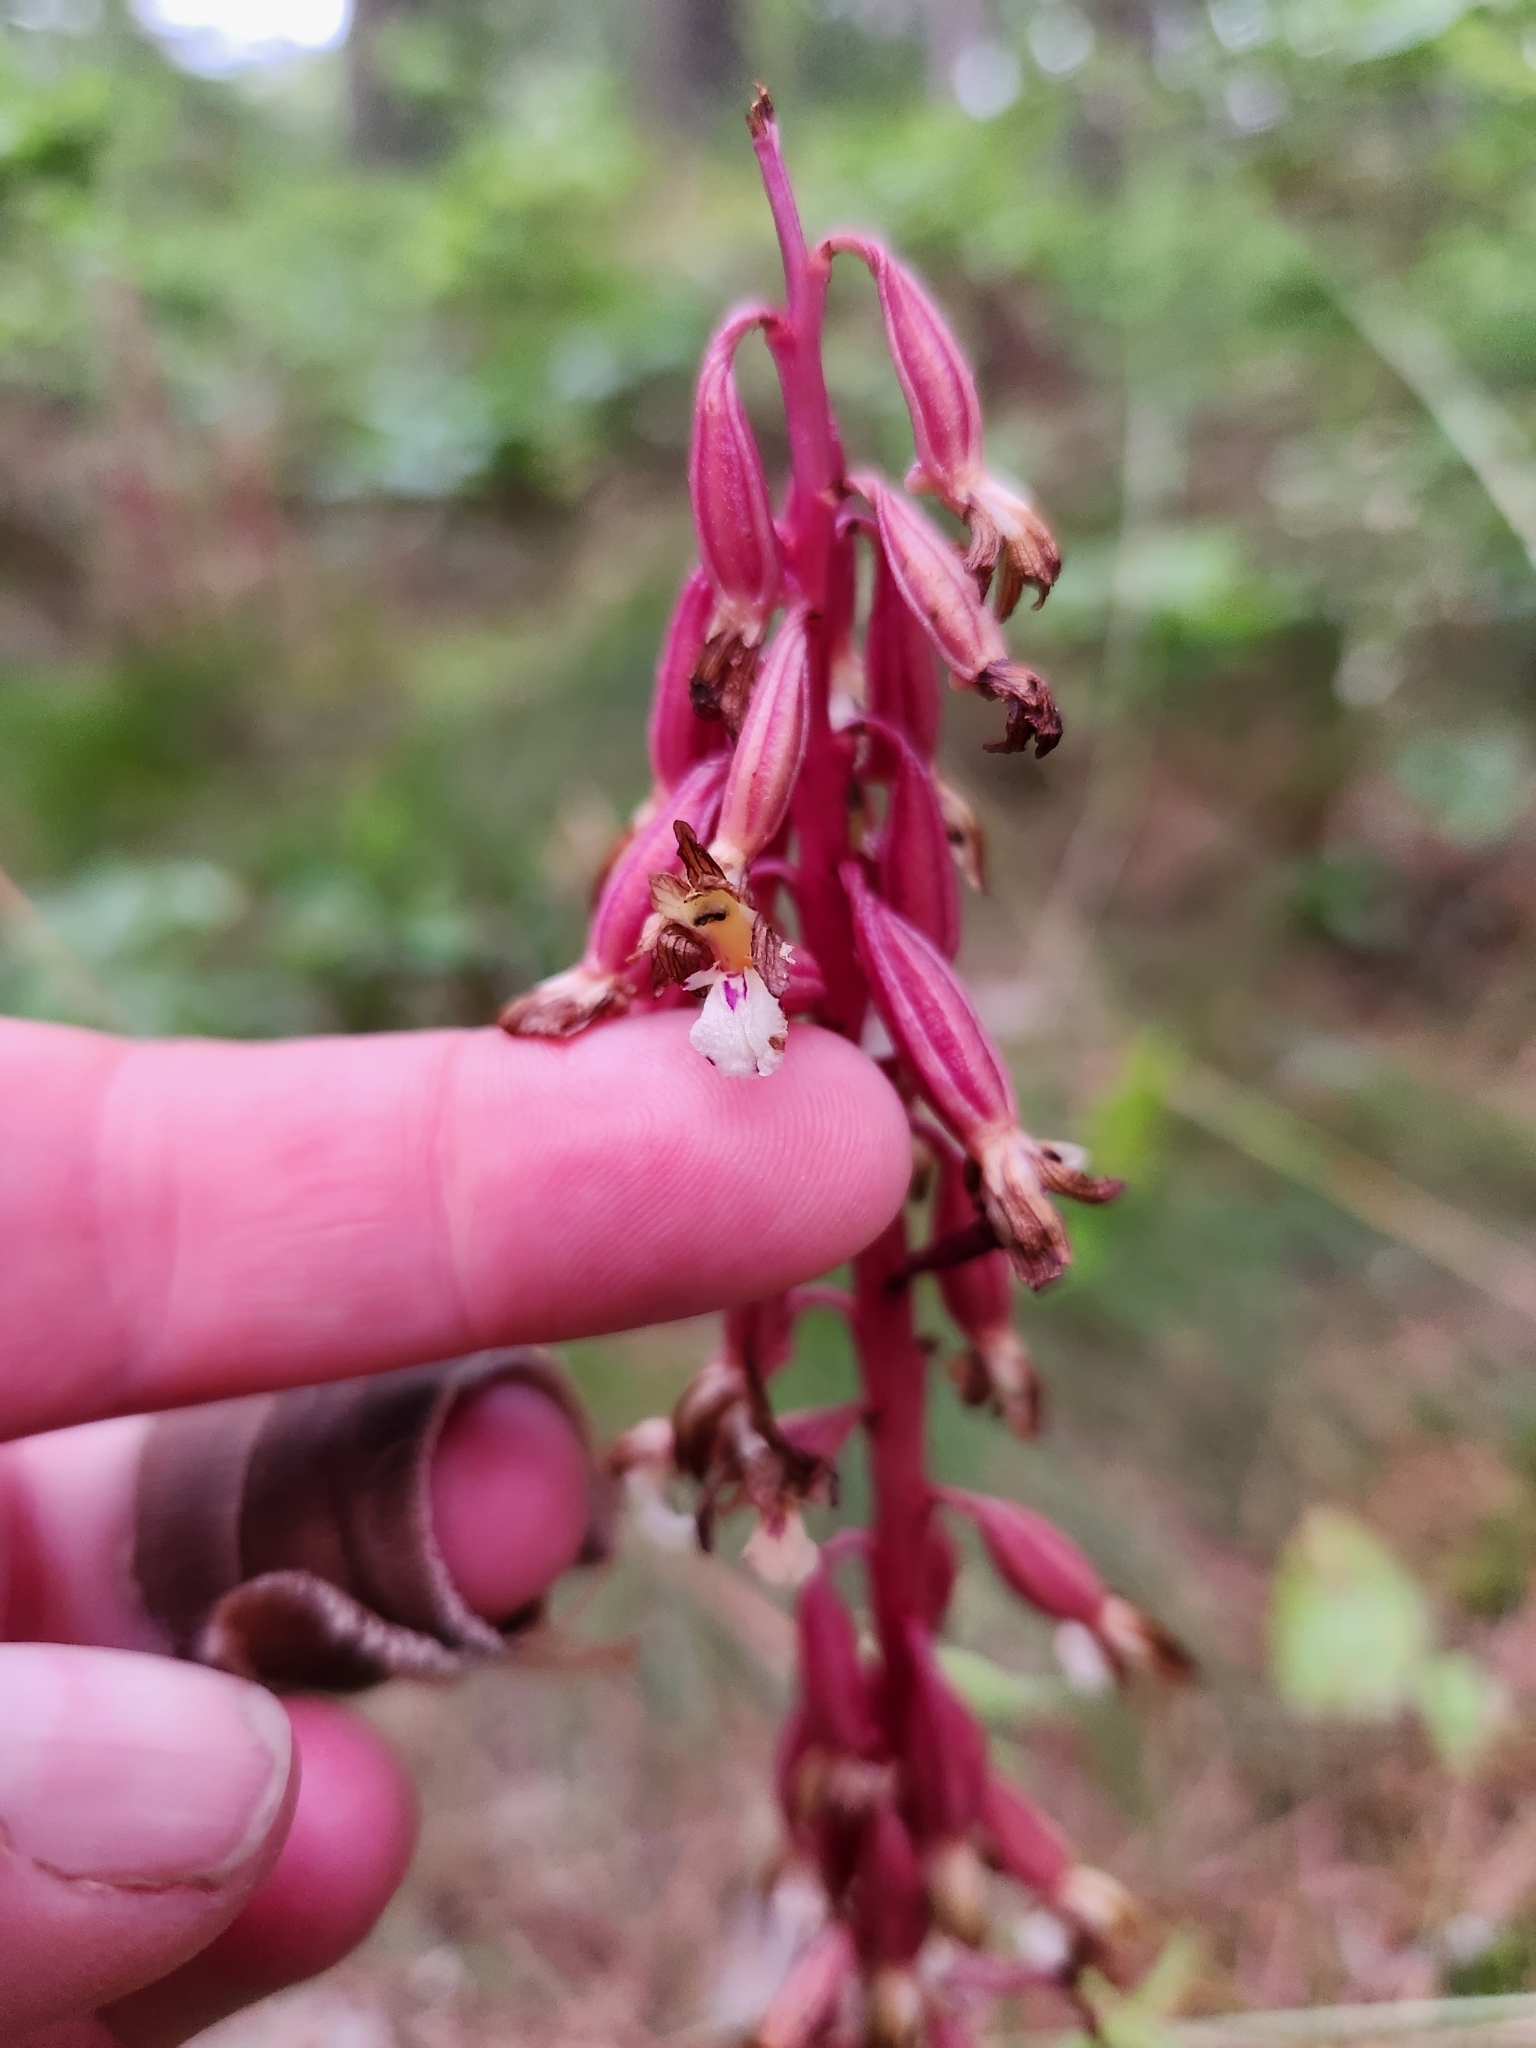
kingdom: Plantae
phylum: Tracheophyta
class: Liliopsida
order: Asparagales
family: Orchidaceae
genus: Corallorhiza
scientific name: Corallorhiza maculata
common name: Spotted coralroot
